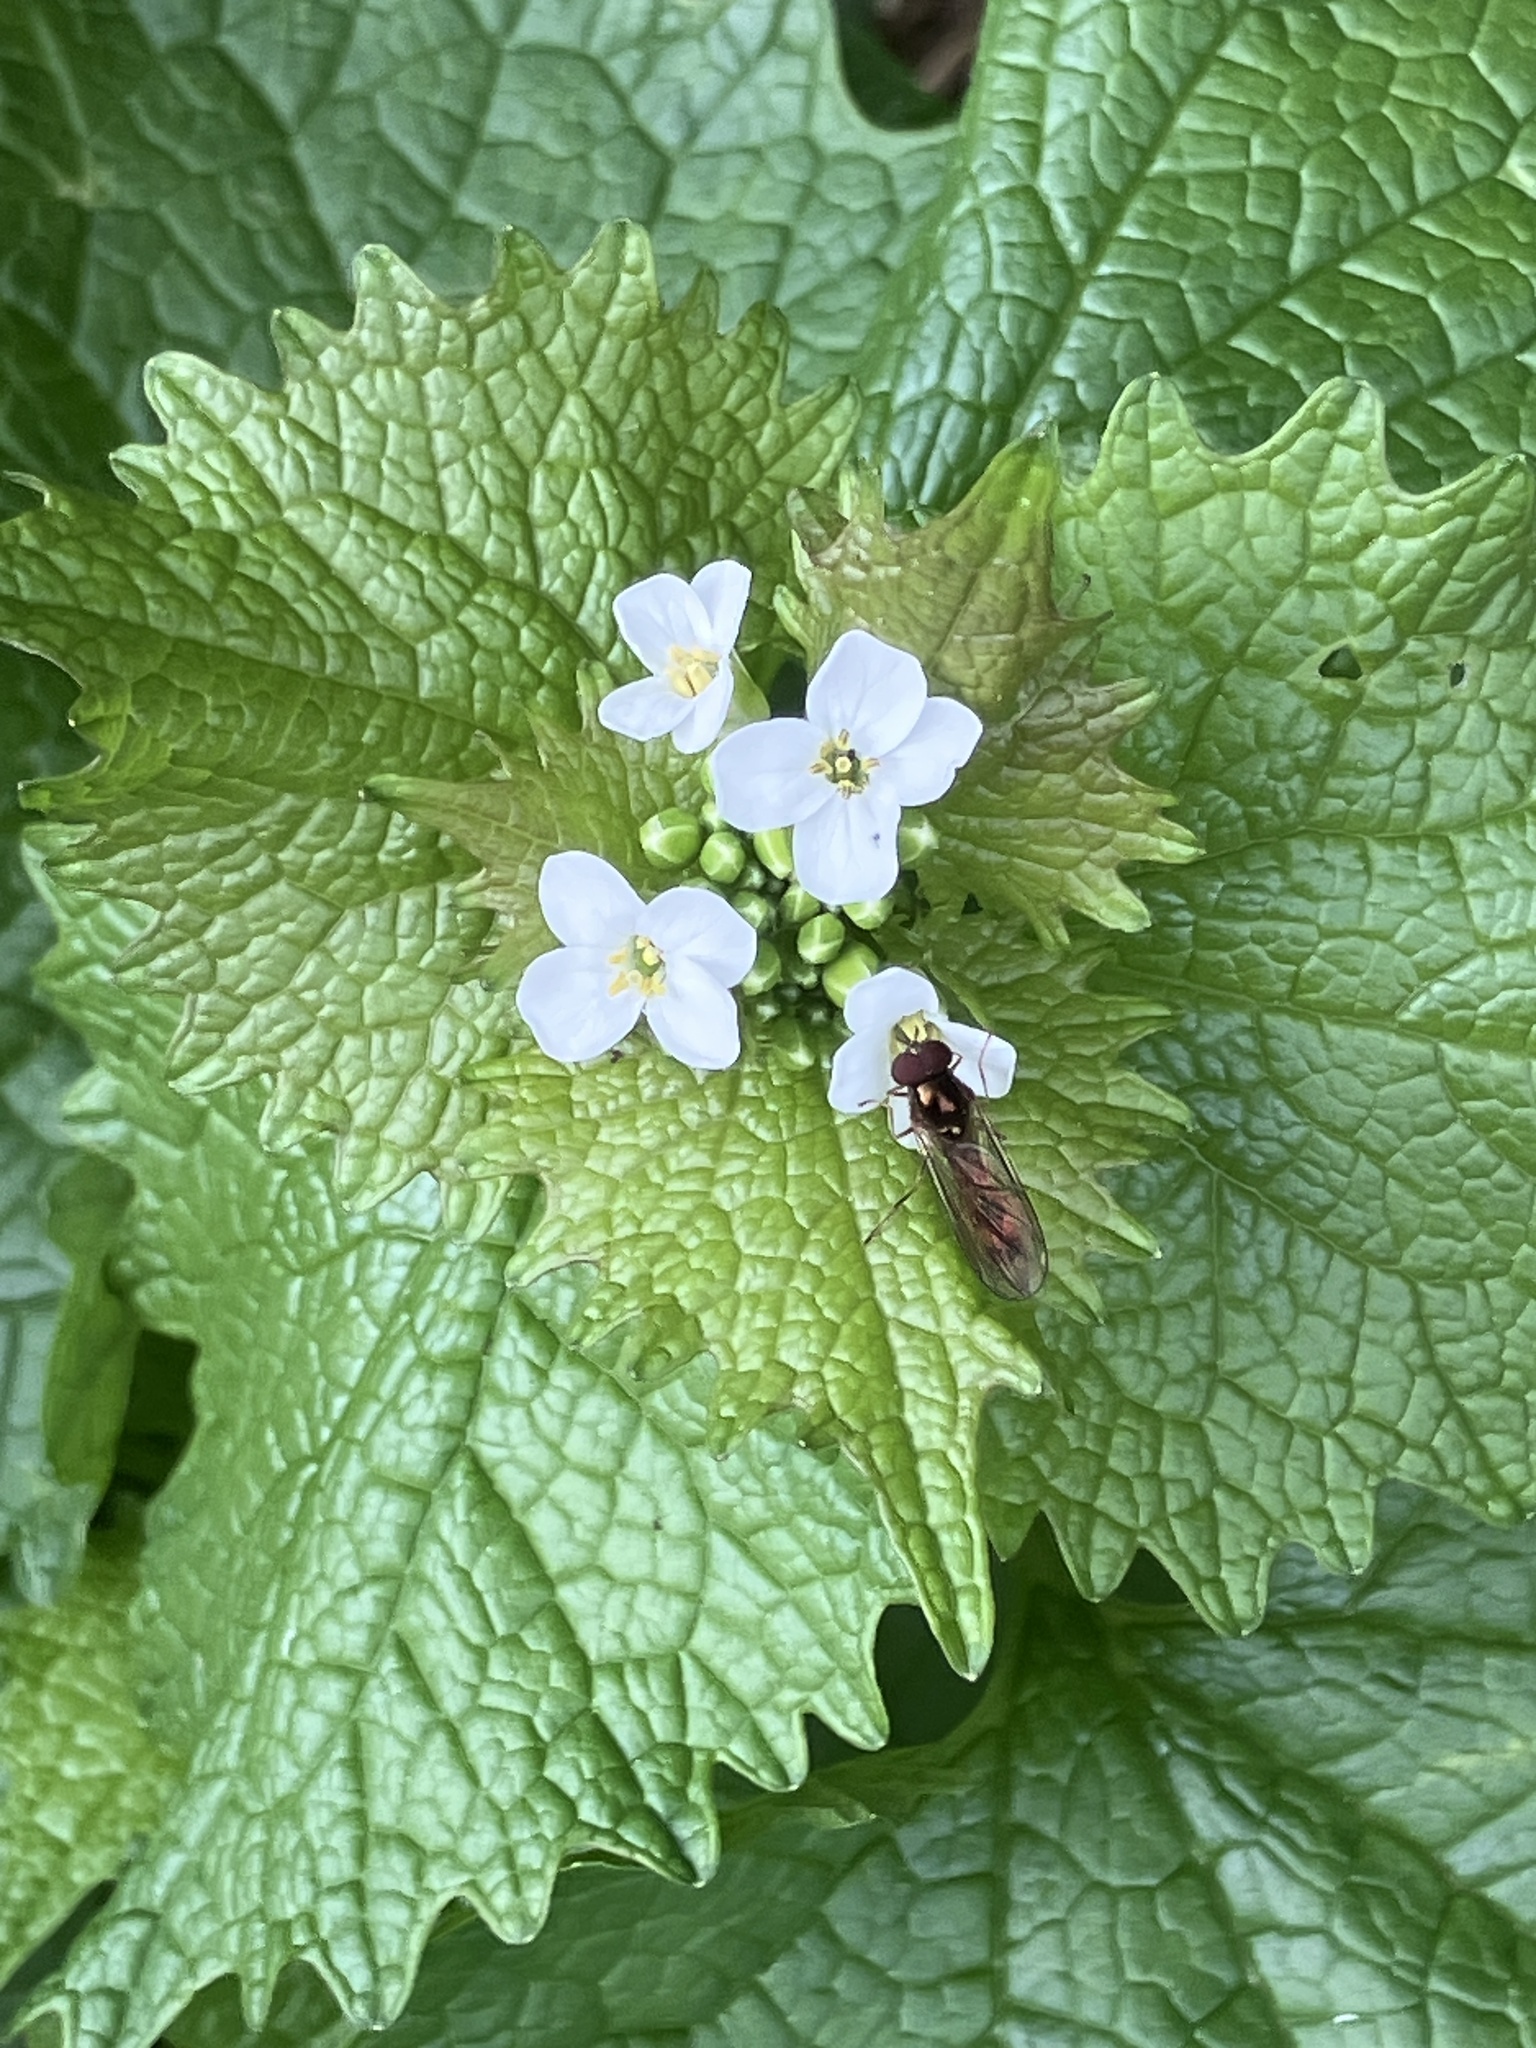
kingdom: Animalia
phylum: Arthropoda
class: Insecta
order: Diptera
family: Syrphidae
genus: Melanostoma
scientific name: Melanostoma
